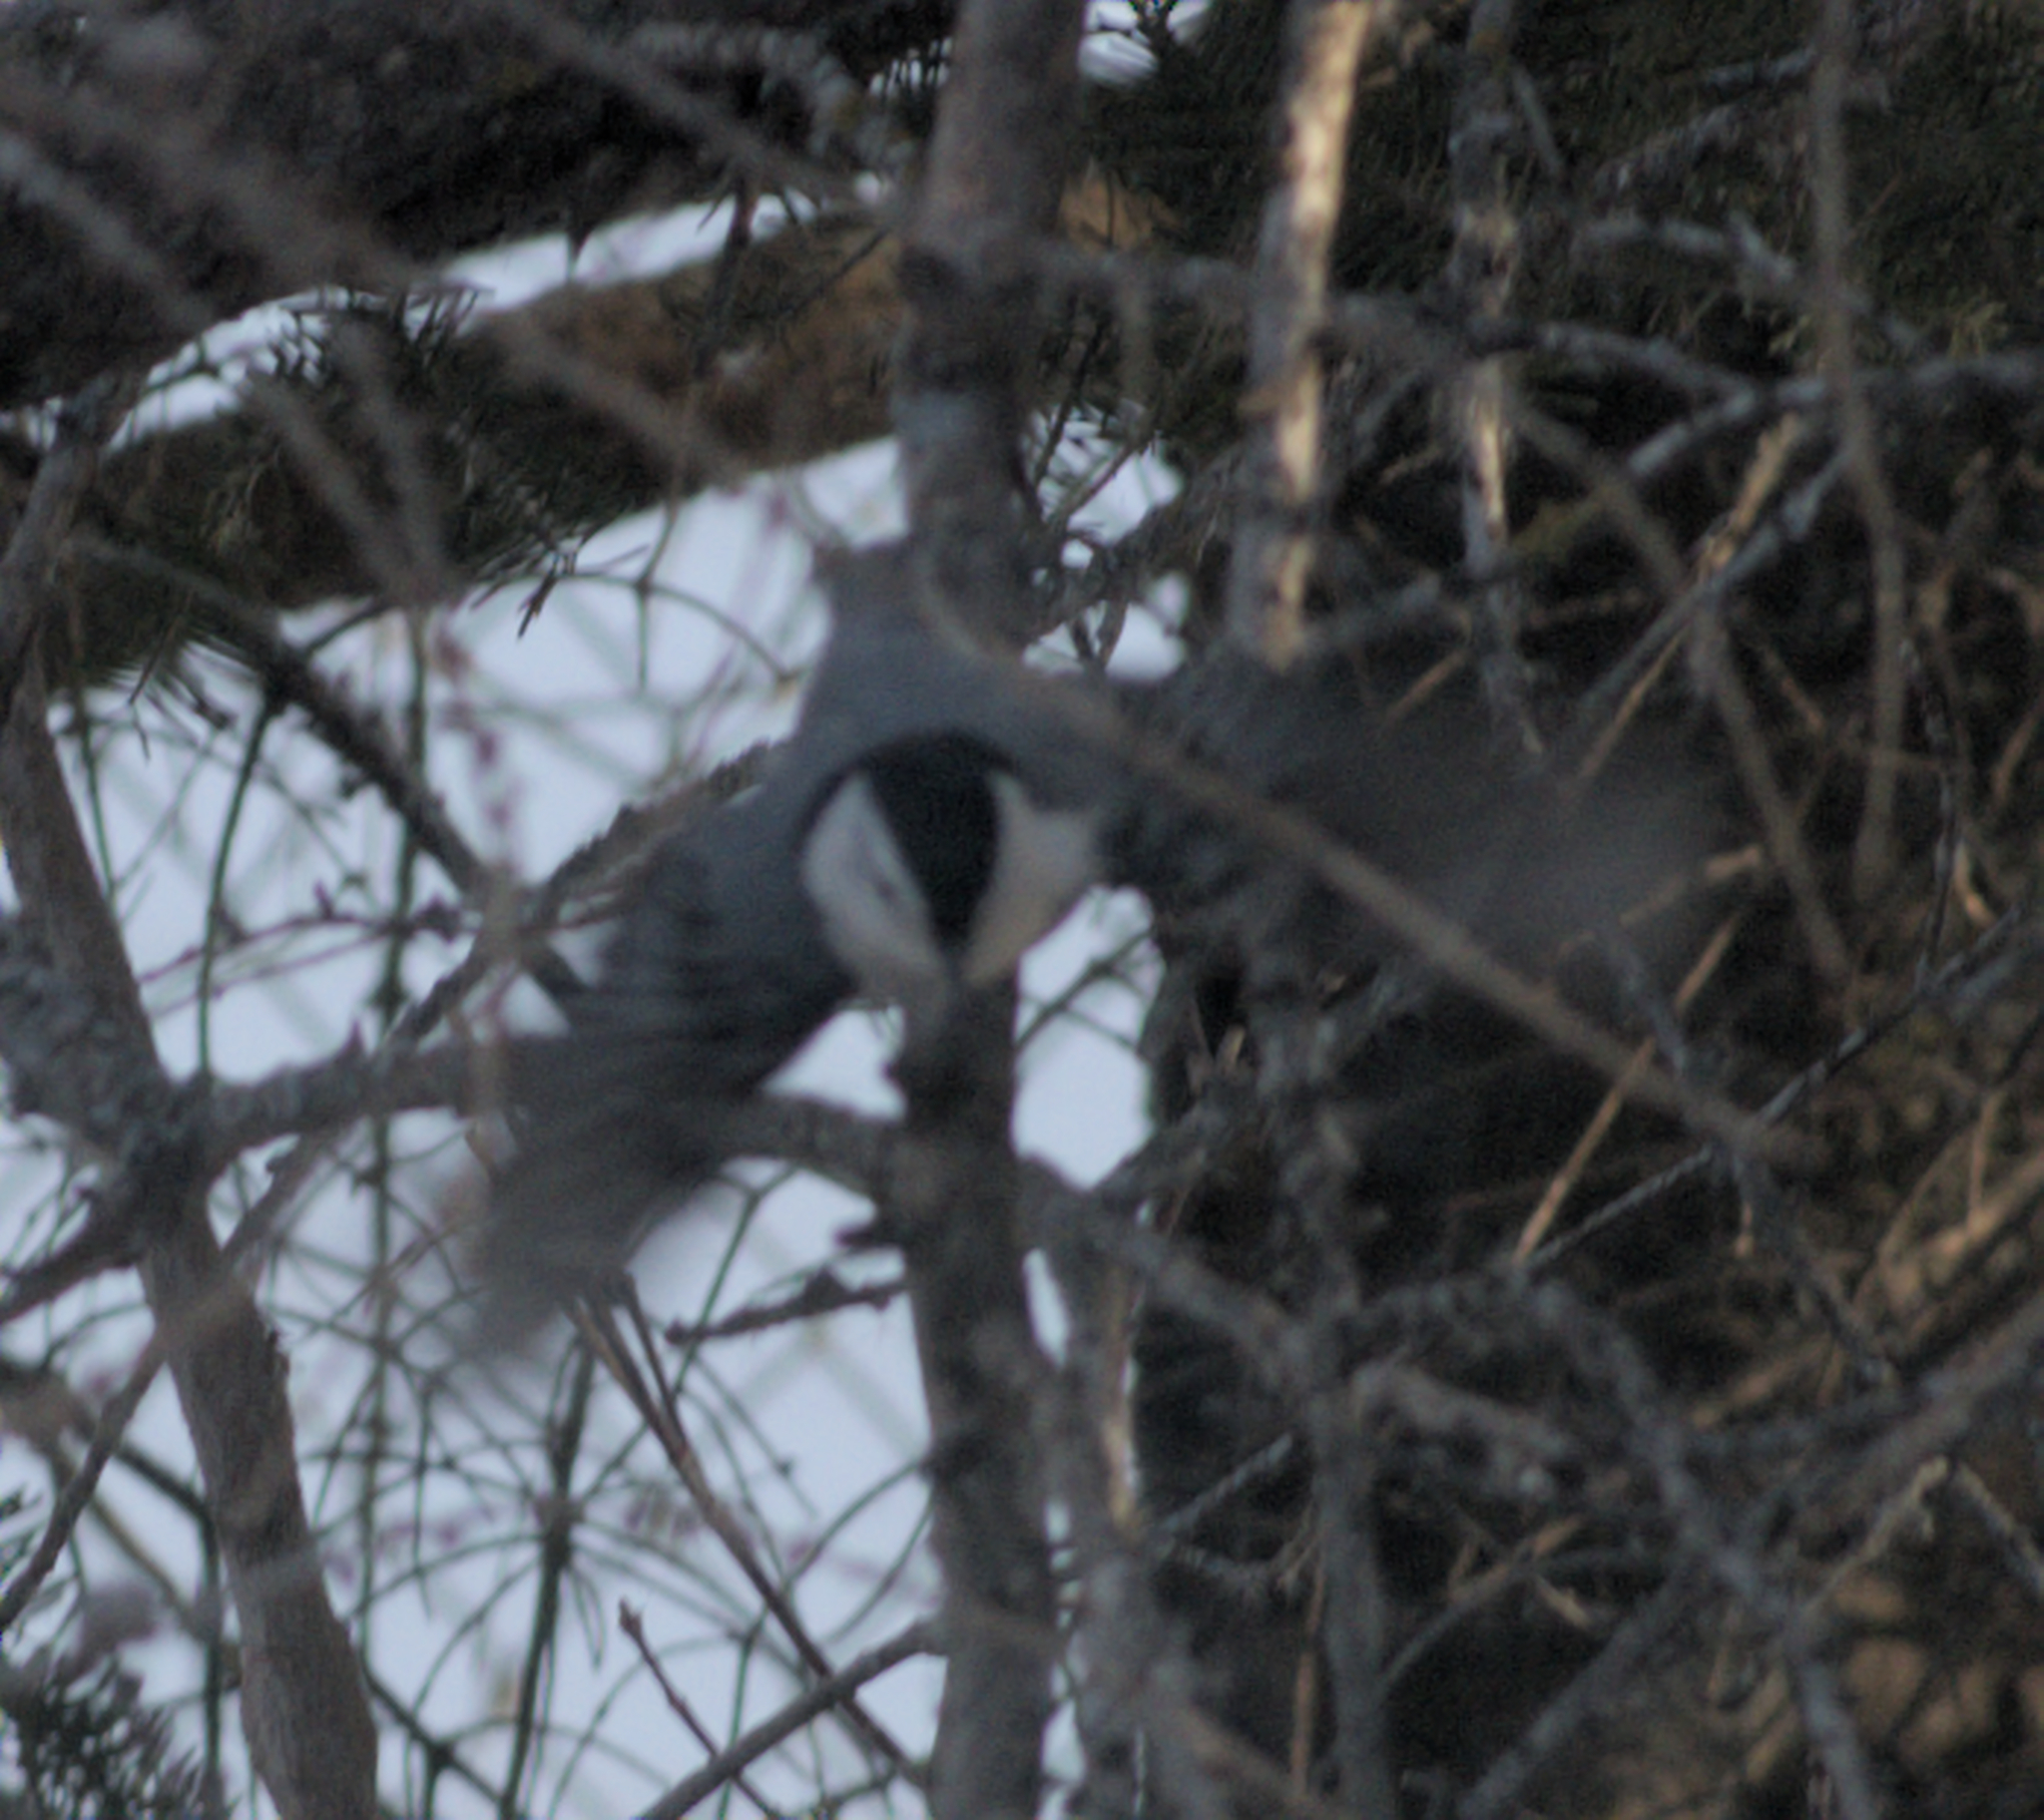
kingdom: Animalia
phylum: Chordata
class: Aves
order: Passeriformes
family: Sittidae
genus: Sitta
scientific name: Sitta carolinensis
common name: White-breasted nuthatch
